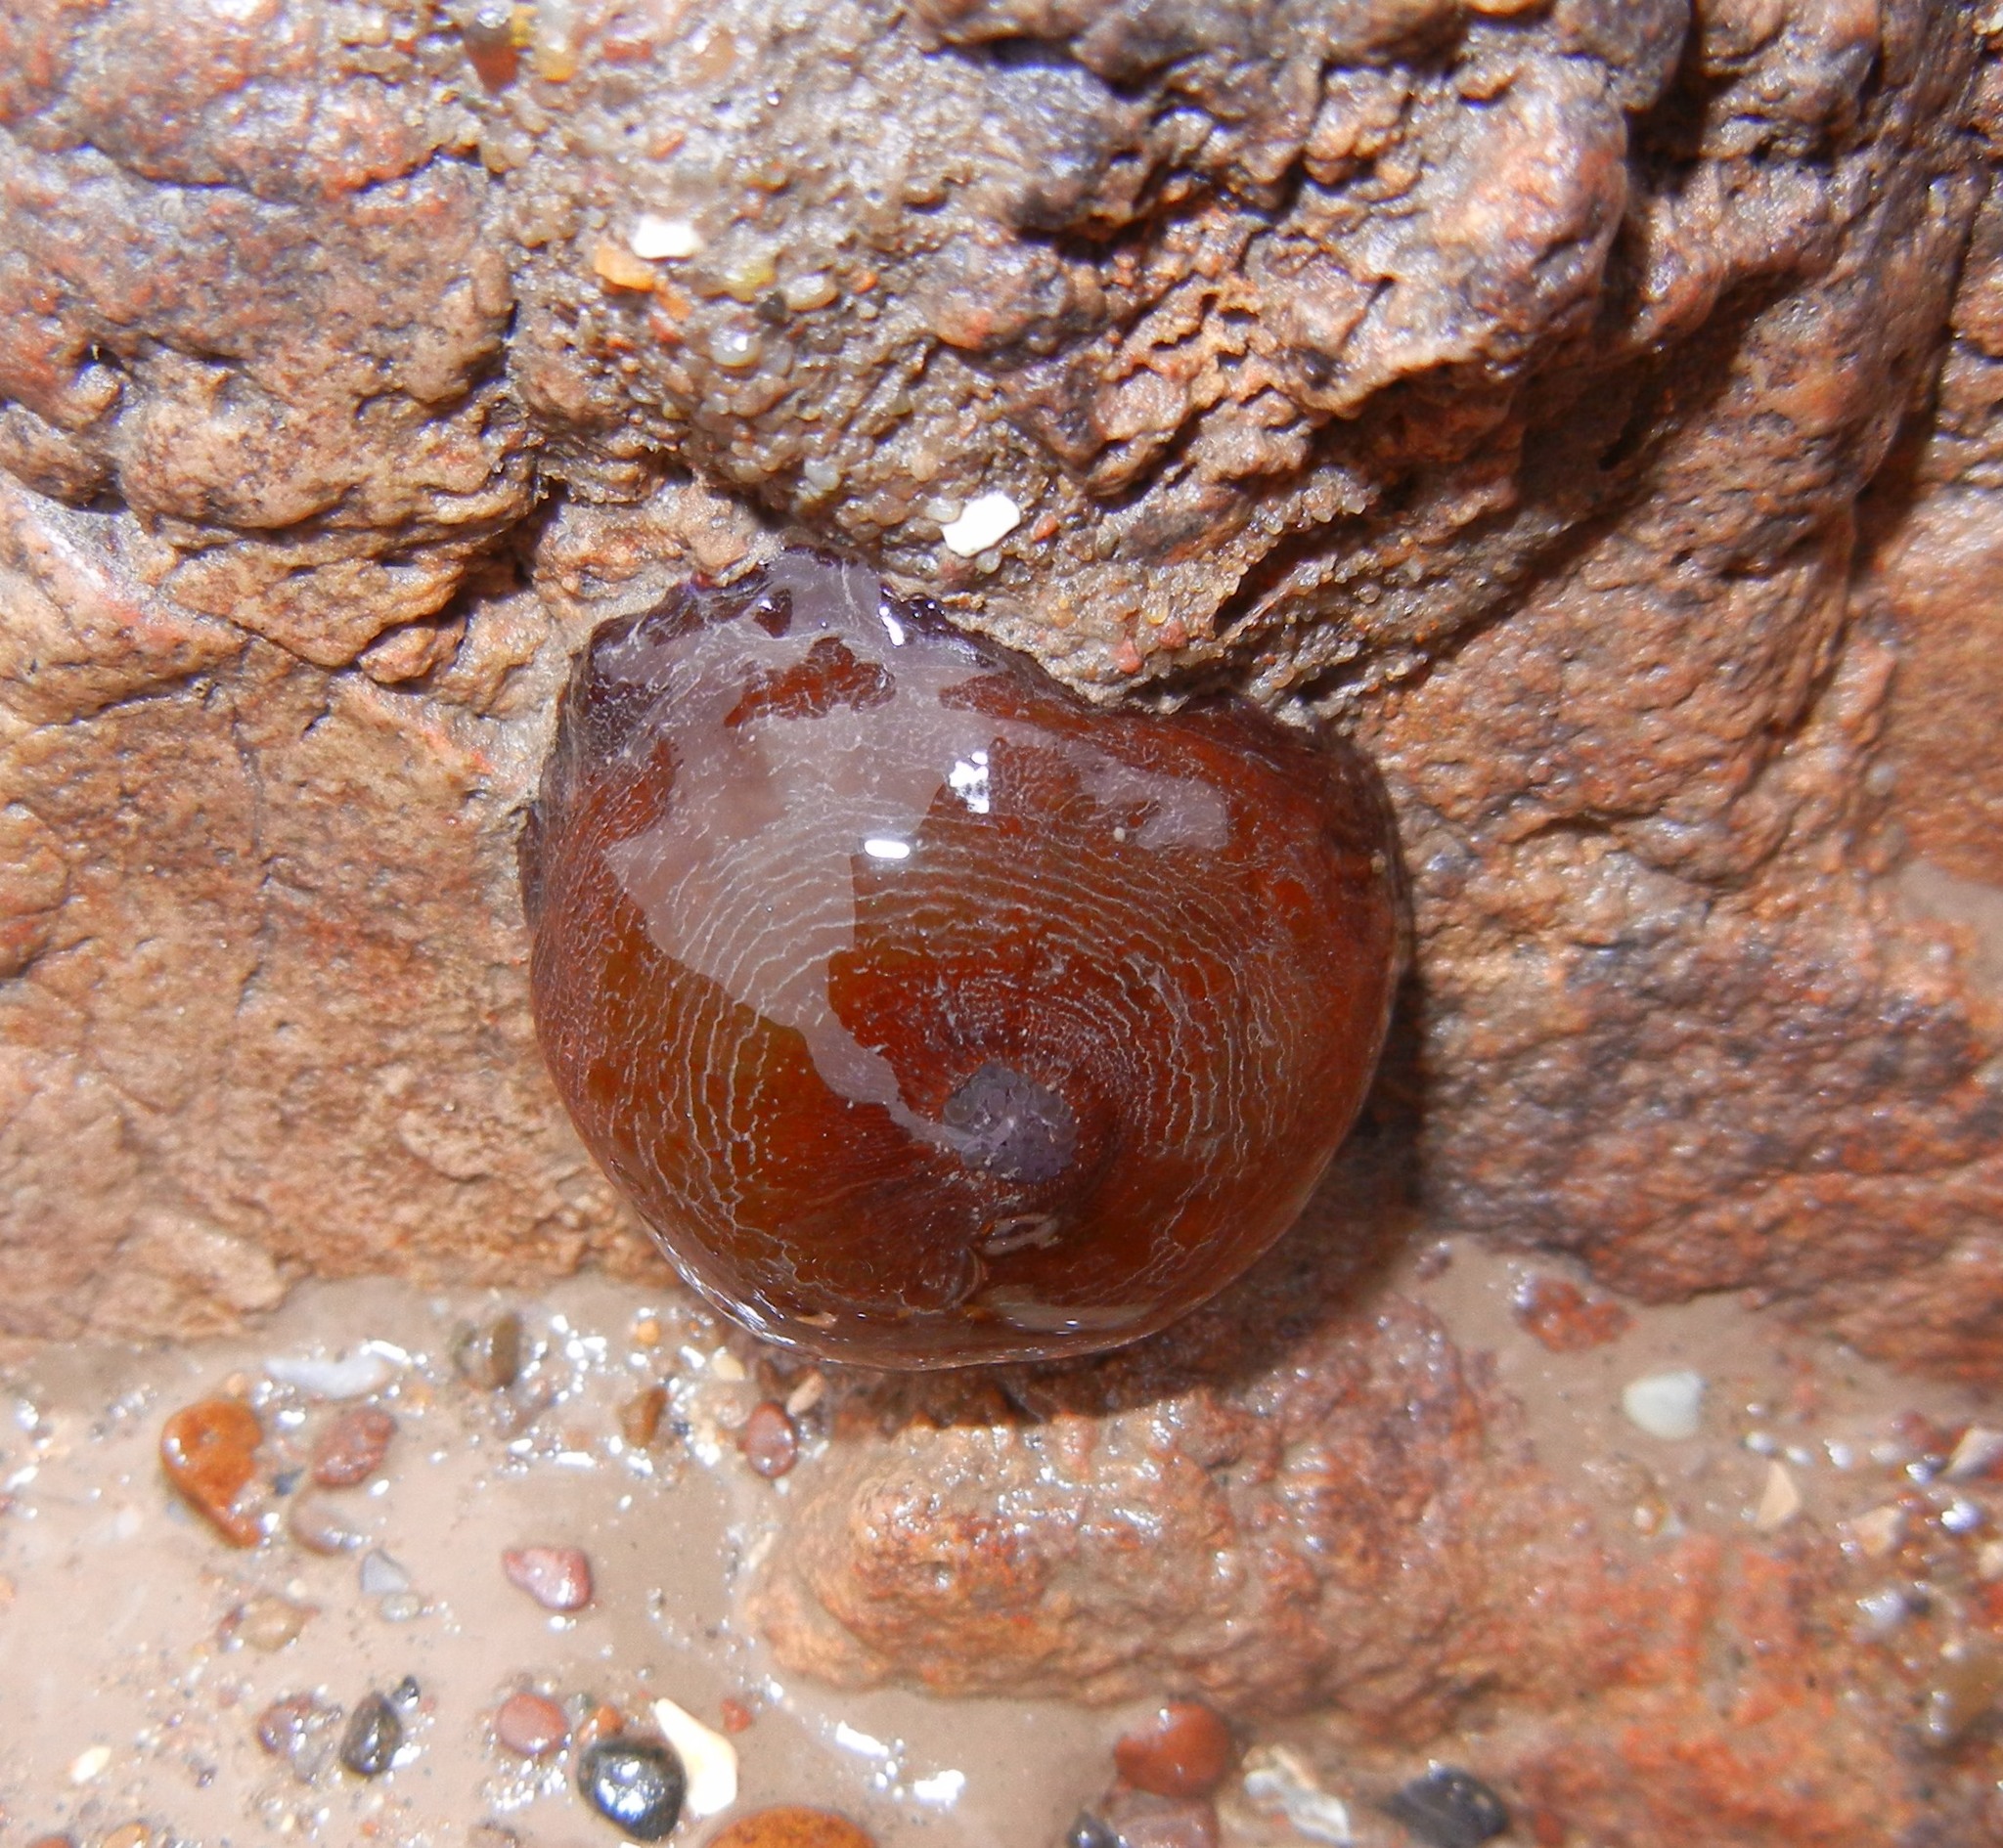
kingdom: Animalia
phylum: Cnidaria
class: Anthozoa
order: Actiniaria
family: Actiniidae
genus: Actinia
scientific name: Actinia equina
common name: Beadlet anemone
